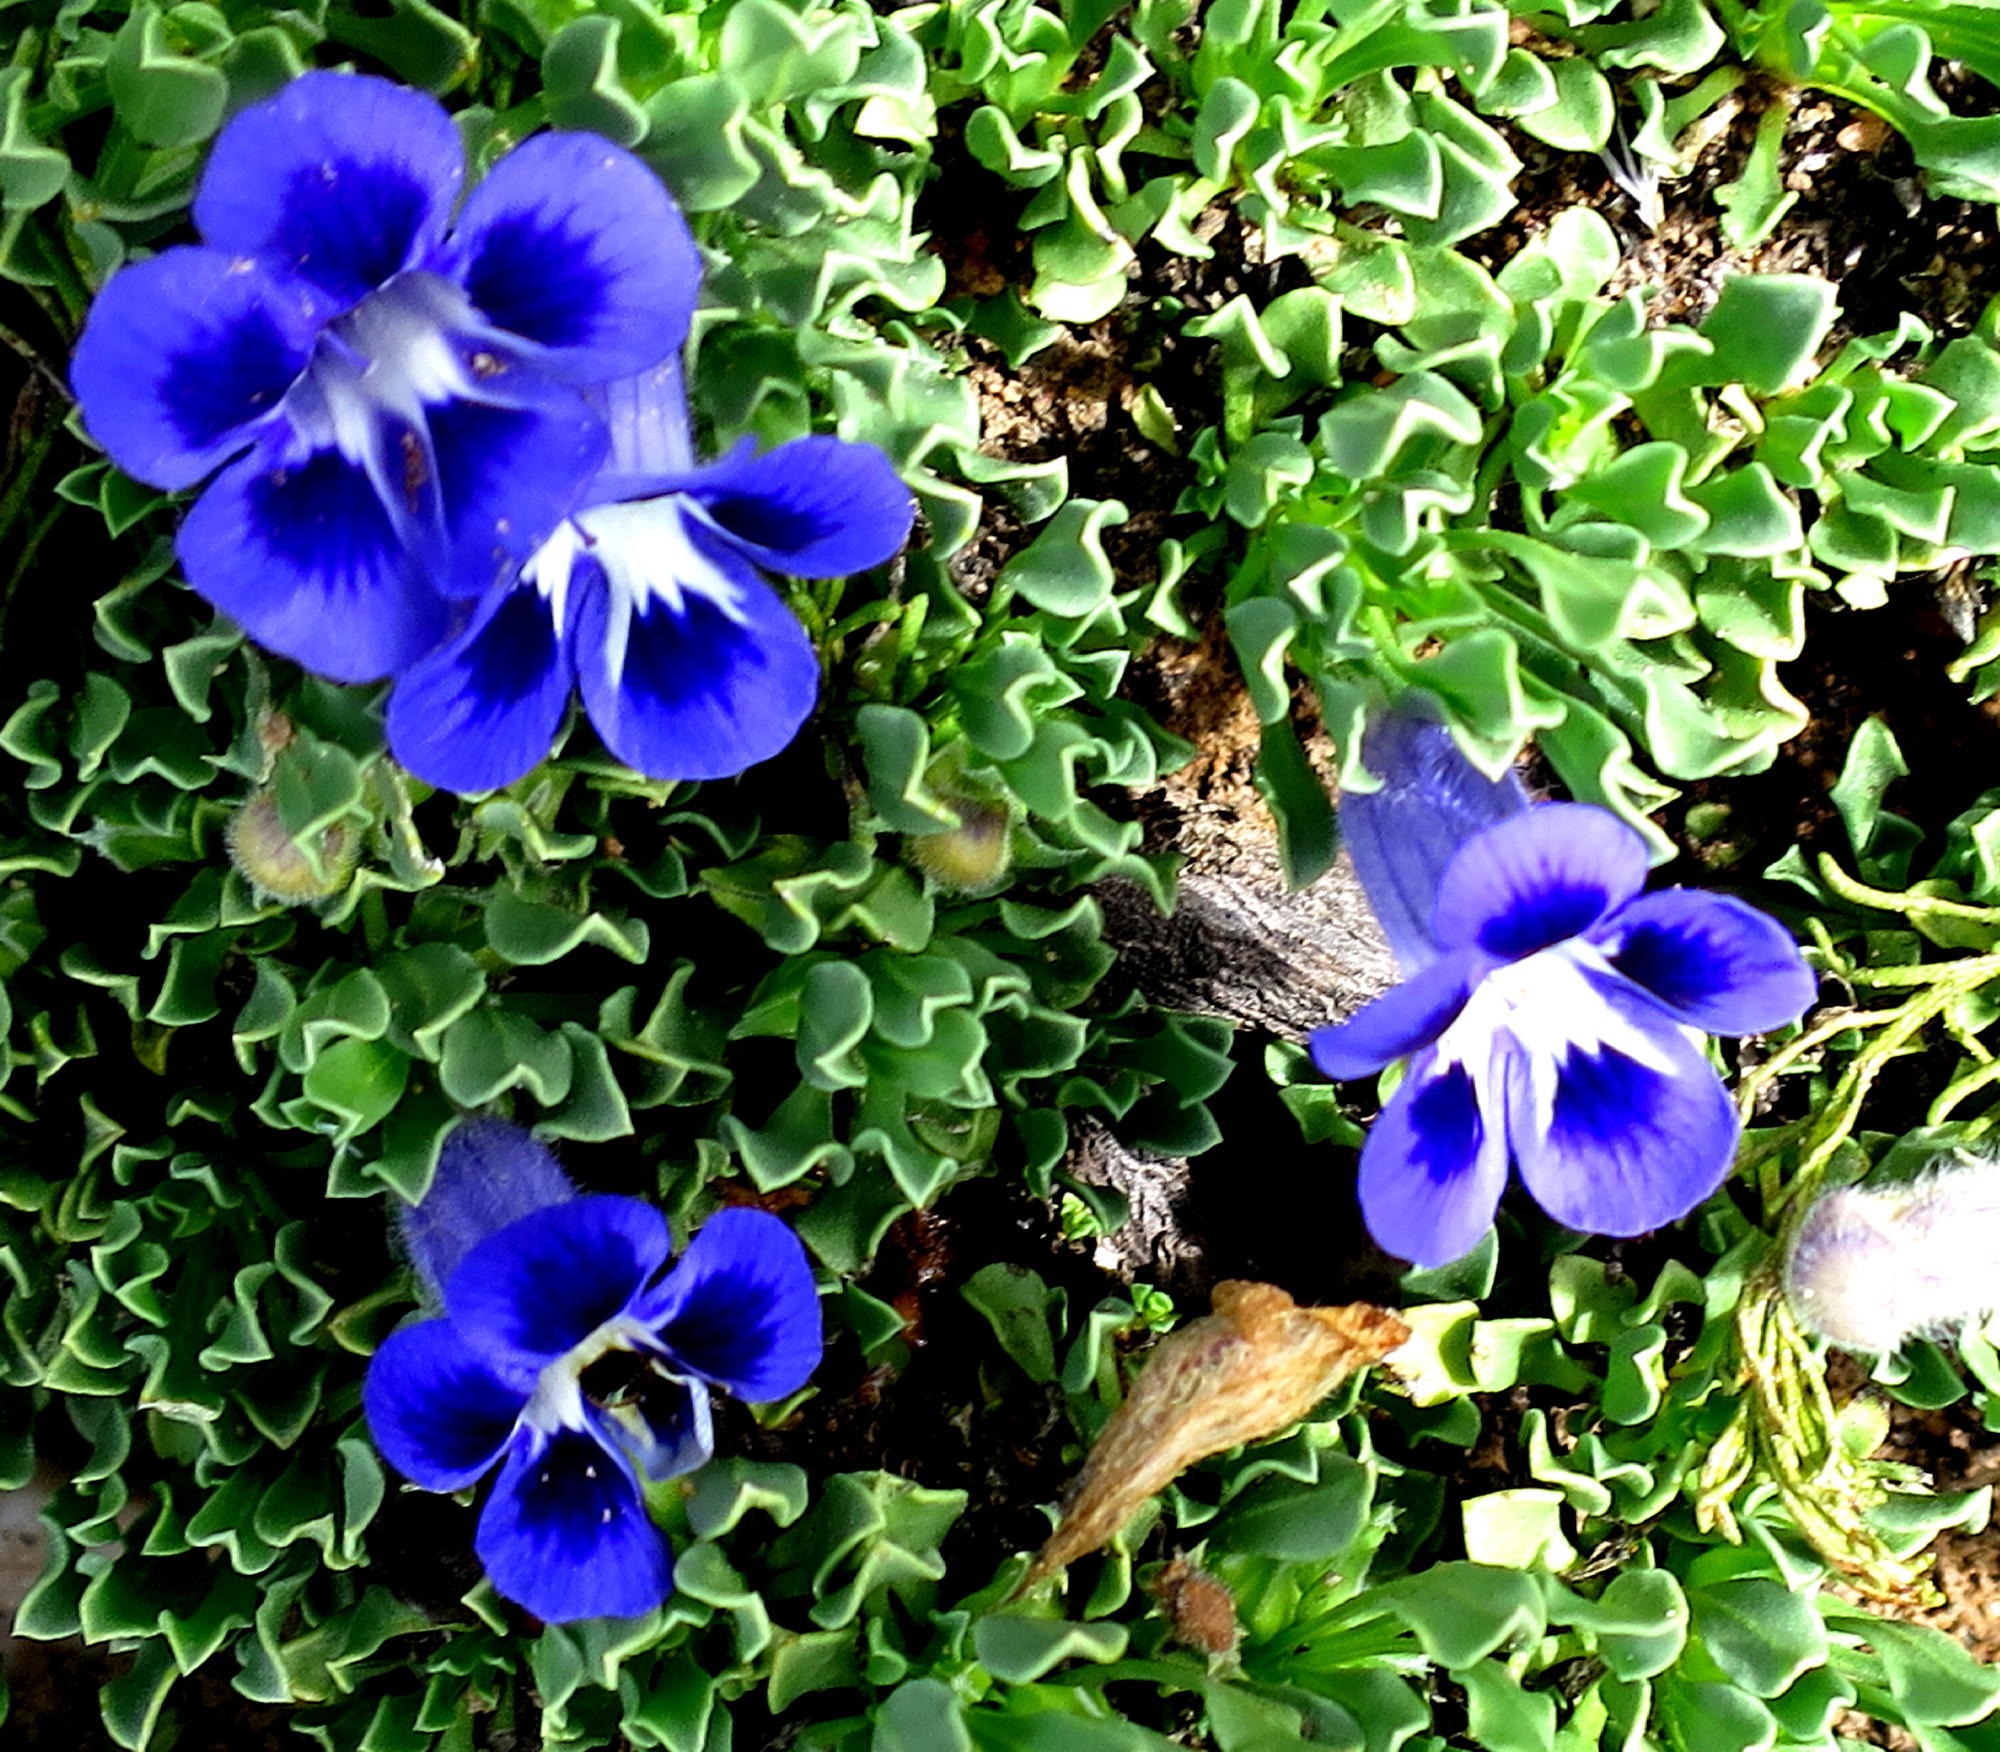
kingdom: Plantae
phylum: Tracheophyta
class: Magnoliopsida
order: Lamiales
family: Scrophulariaceae
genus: Aptosimum
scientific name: Aptosimum indivisum
